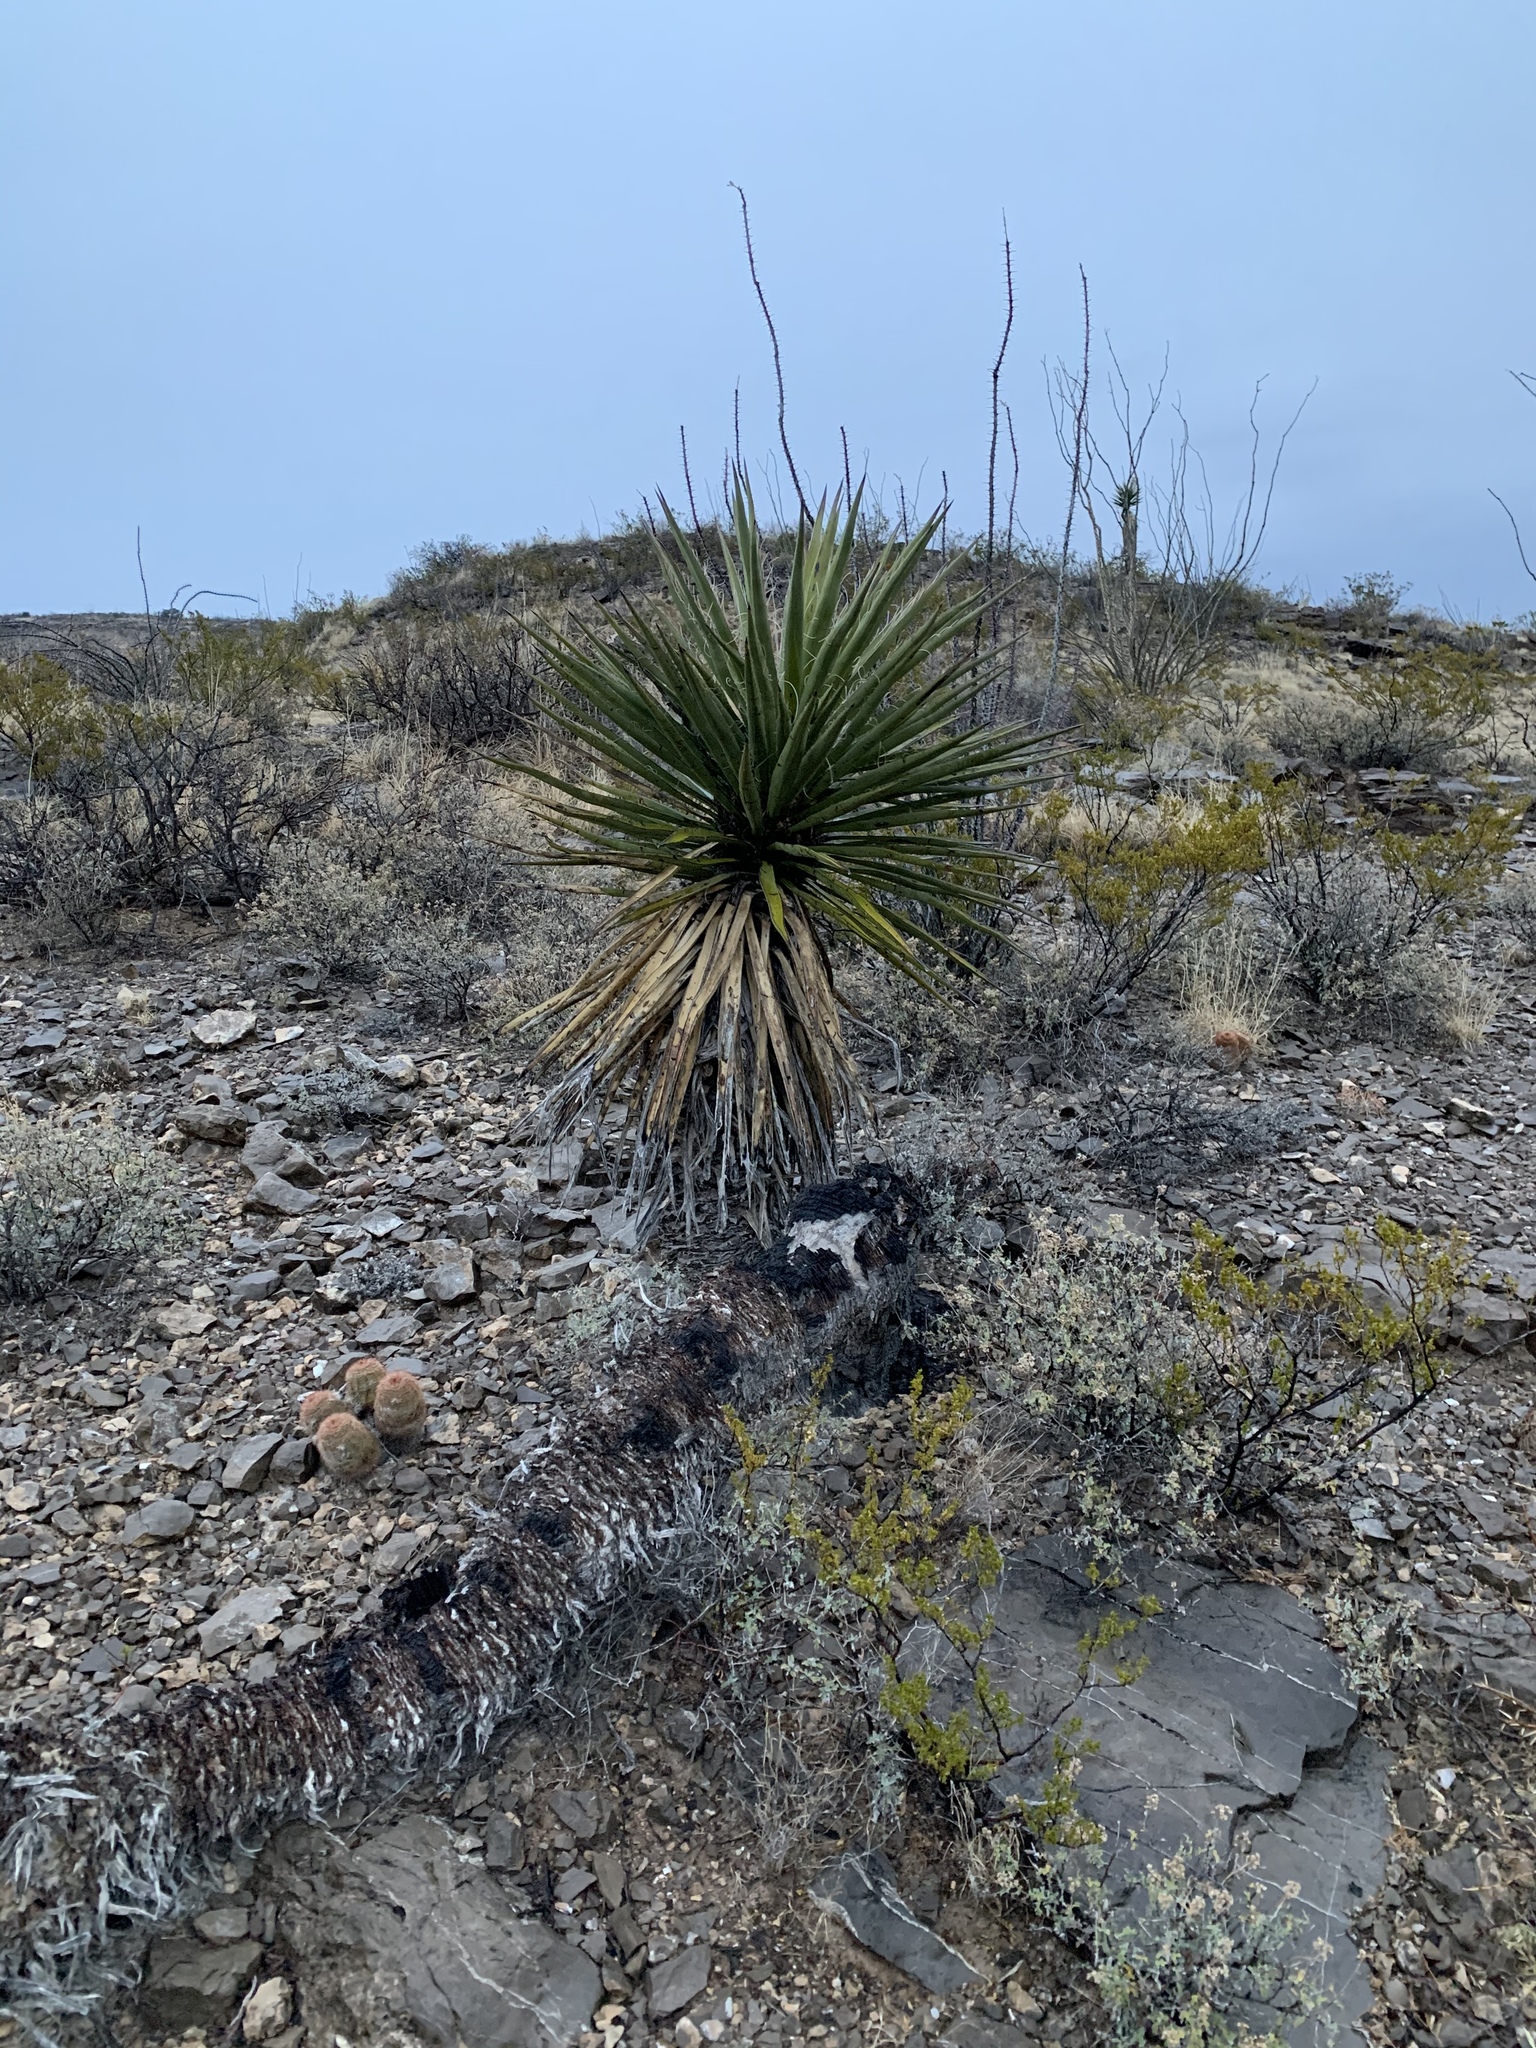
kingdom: Plantae
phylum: Tracheophyta
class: Liliopsida
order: Asparagales
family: Asparagaceae
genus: Yucca
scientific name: Yucca treculiana
